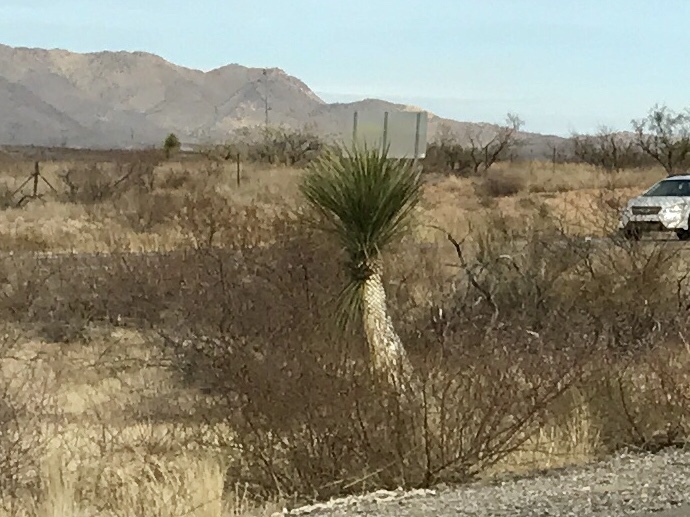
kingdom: Plantae
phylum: Tracheophyta
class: Liliopsida
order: Asparagales
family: Asparagaceae
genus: Yucca
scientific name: Yucca elata
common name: Palmella
